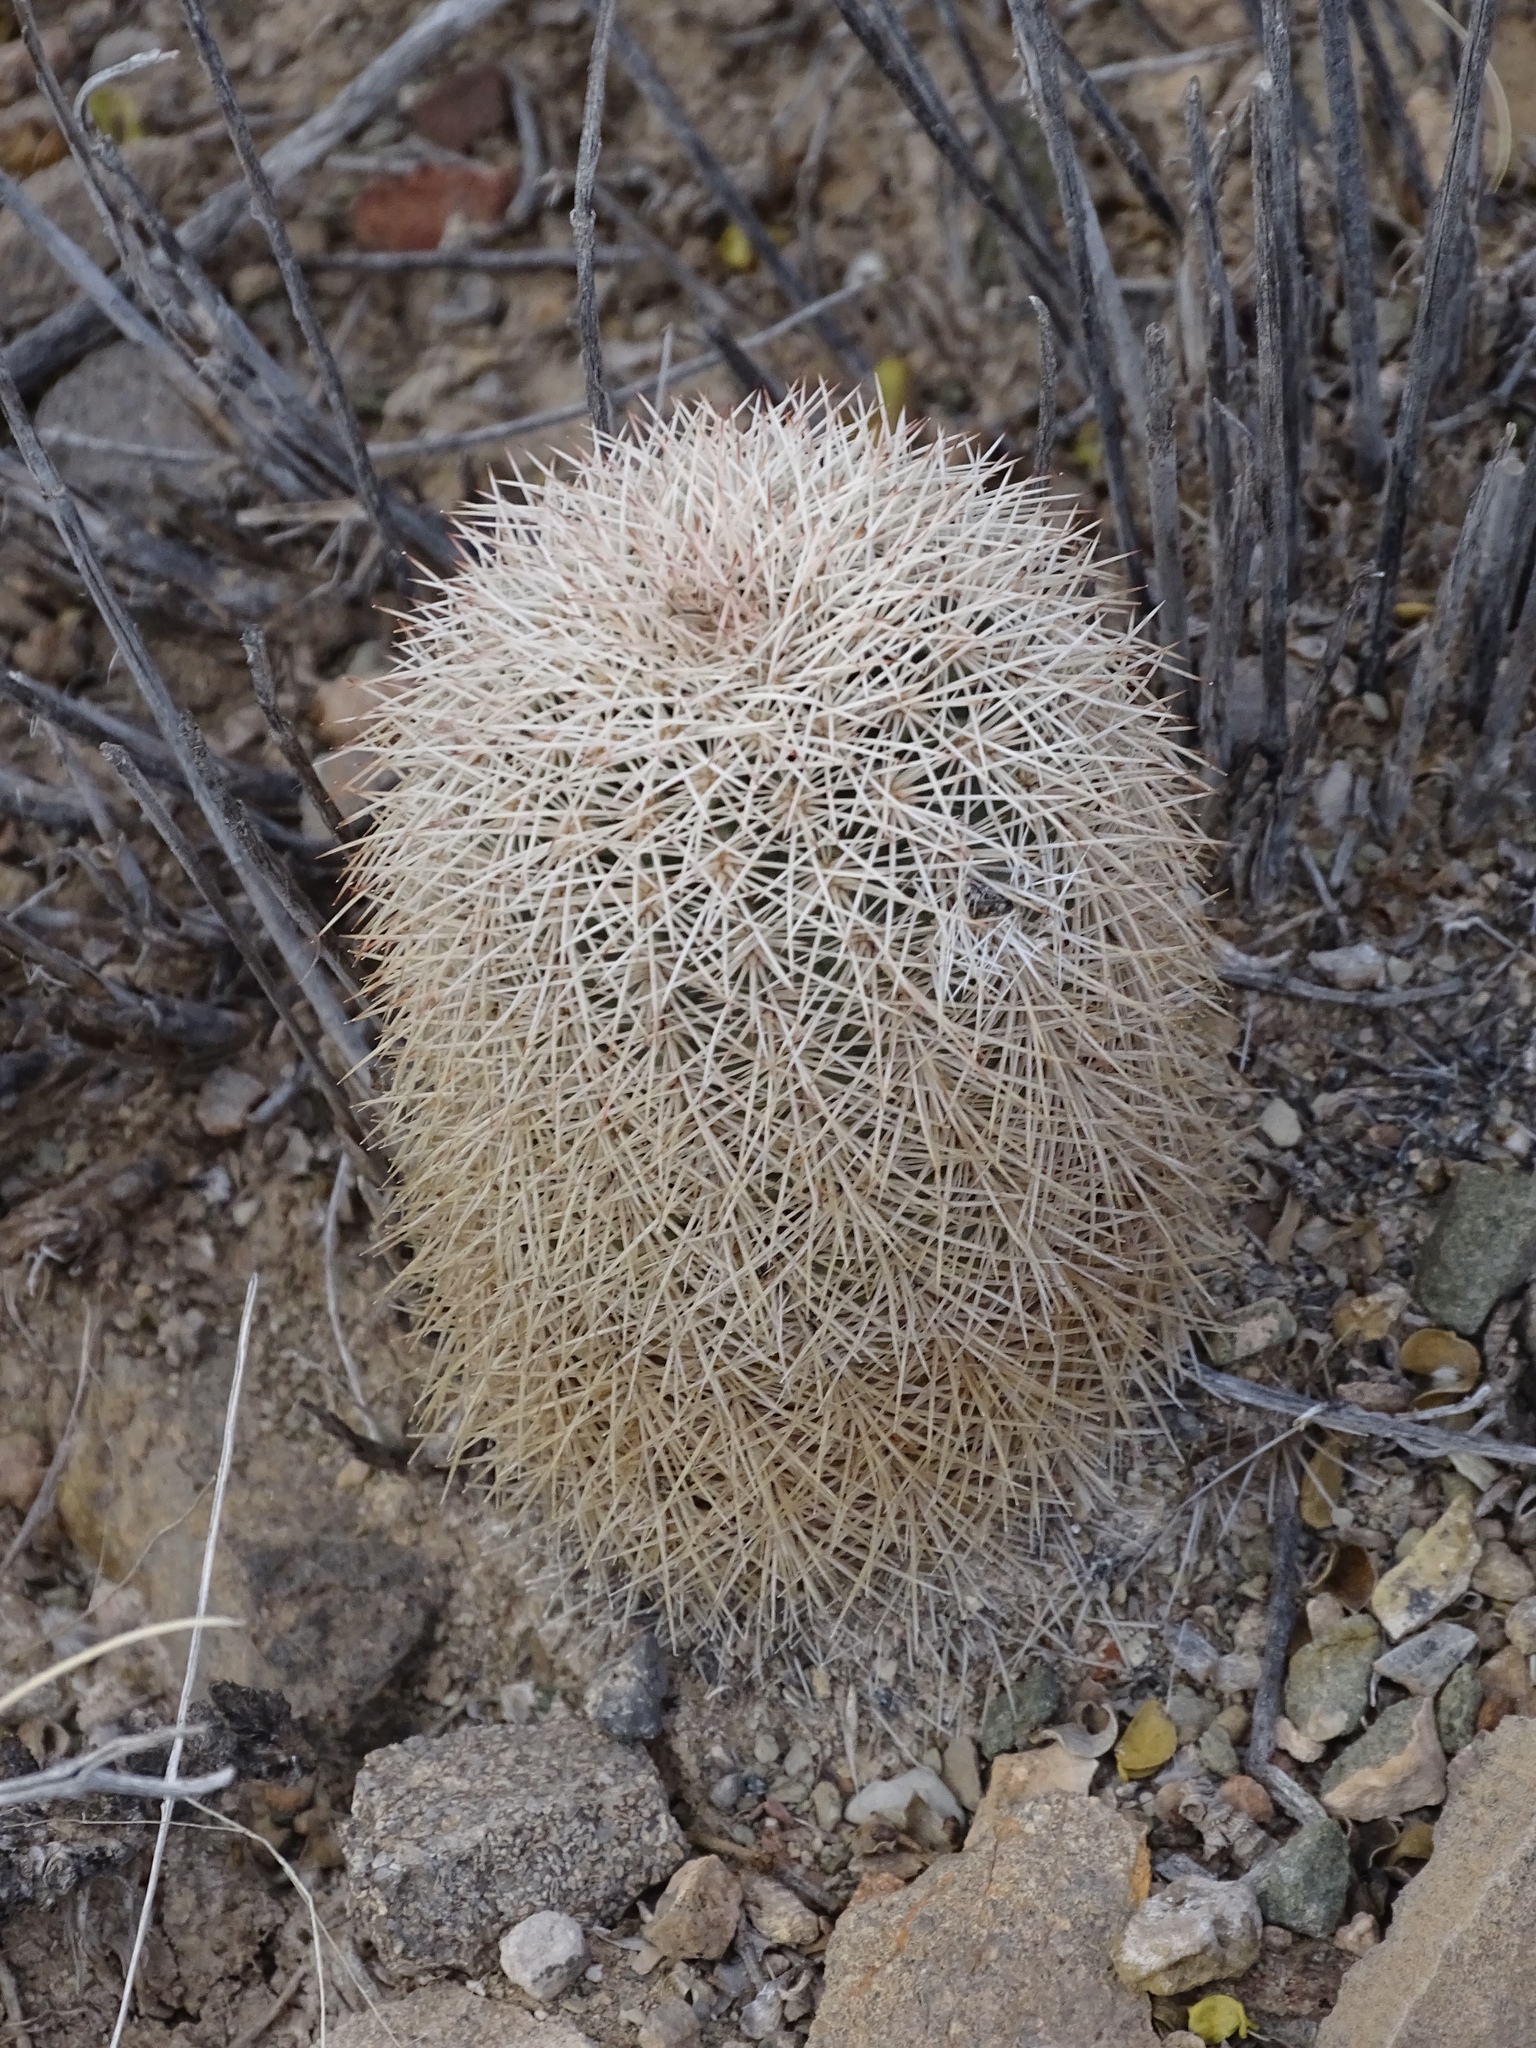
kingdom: Plantae
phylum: Tracheophyta
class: Magnoliopsida
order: Caryophyllales
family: Cactaceae
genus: Echinocereus
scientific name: Echinocereus dasyacanthus
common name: Spiny hedgehog cactus
